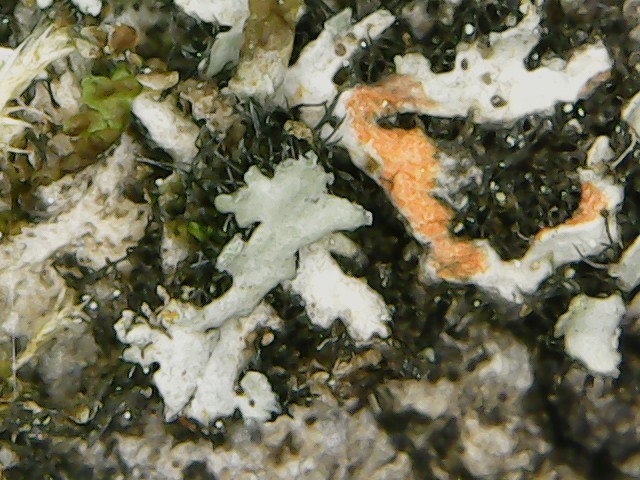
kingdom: Fungi
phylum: Ascomycota
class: Lecanoromycetes
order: Caliciales
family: Physciaceae
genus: Phaeophyscia
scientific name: Phaeophyscia rubropulchra
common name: Orange-cored shadow lichen
